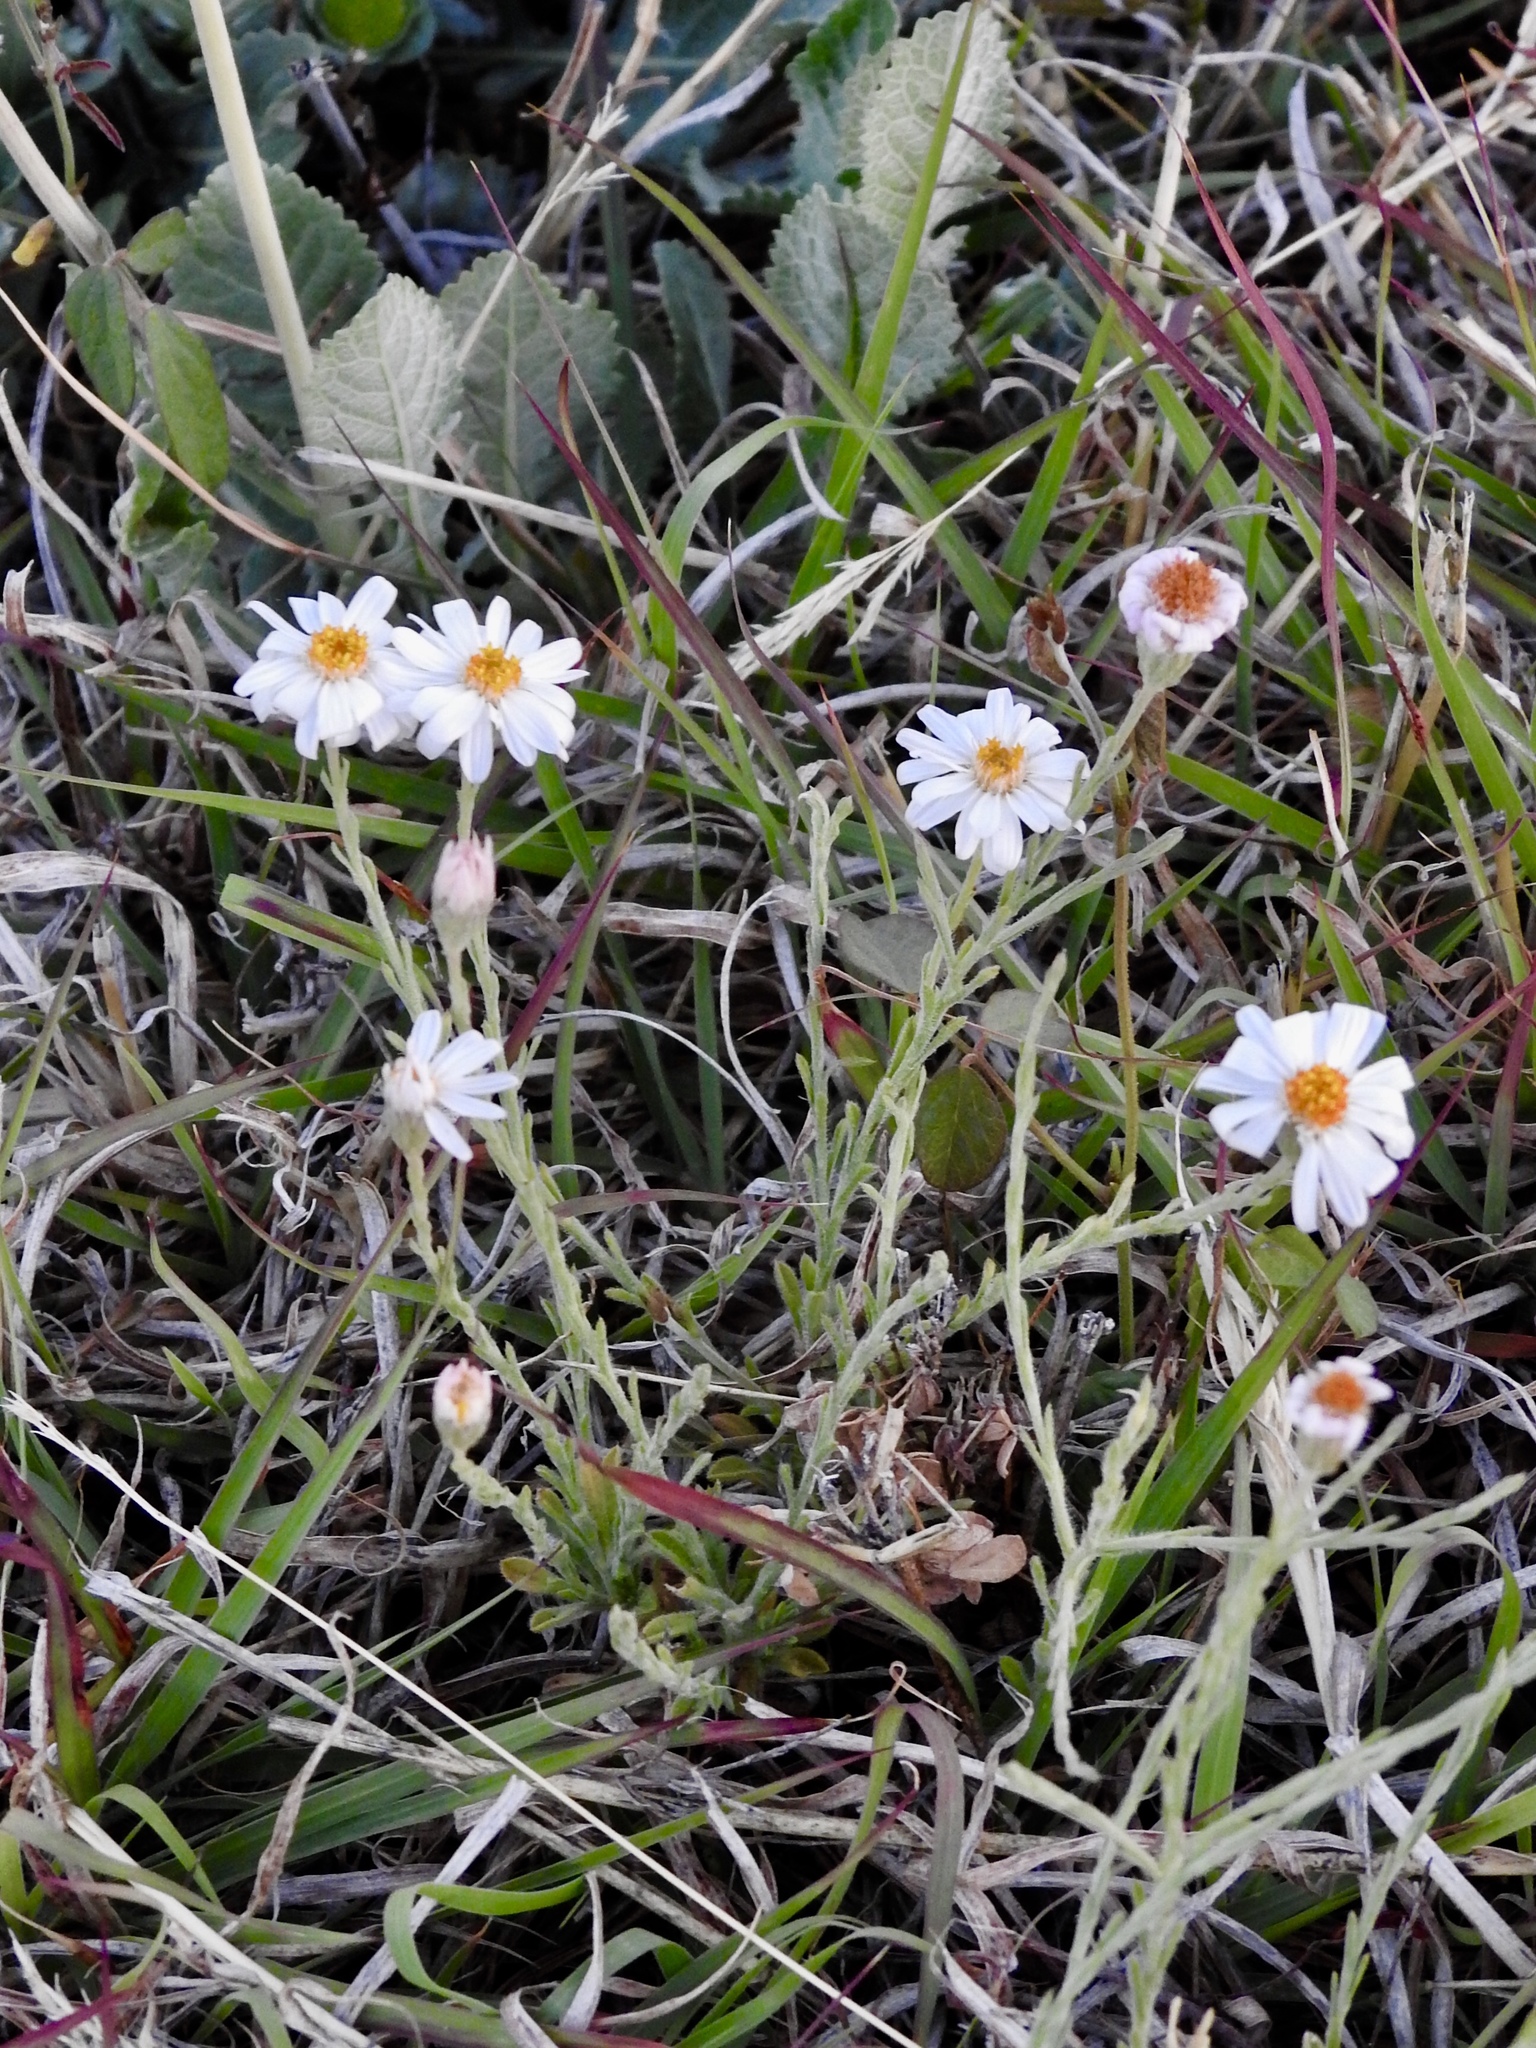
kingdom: Plantae
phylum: Tracheophyta
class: Magnoliopsida
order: Asterales
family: Asteraceae
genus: Chaetopappa
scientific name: Chaetopappa ericoides
